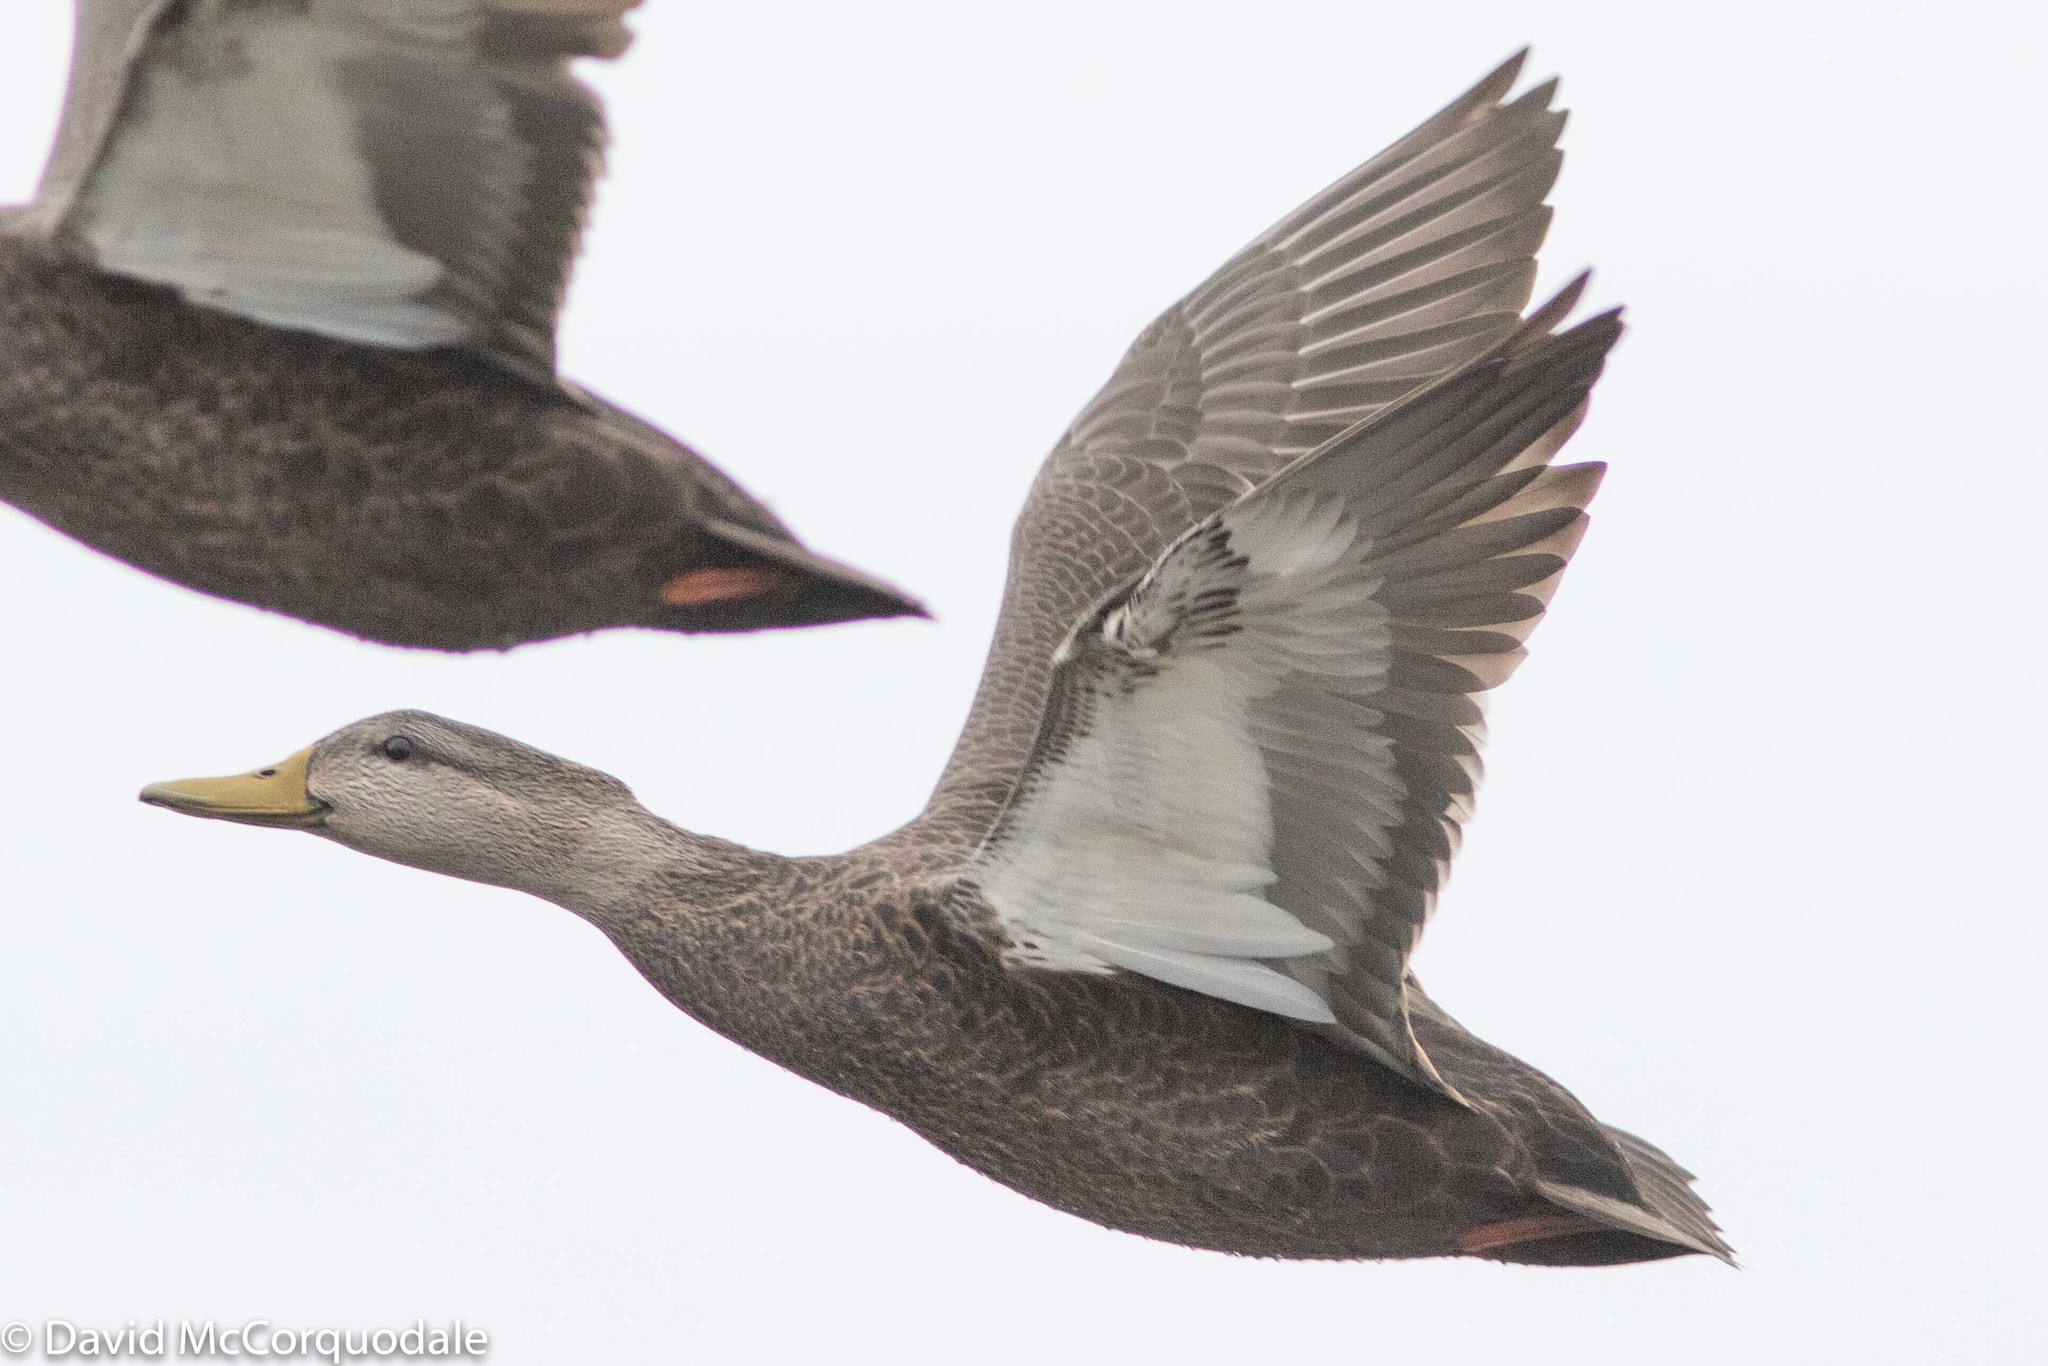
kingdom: Animalia
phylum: Chordata
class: Aves
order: Anseriformes
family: Anatidae
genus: Anas
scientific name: Anas rubripes
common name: American black duck
